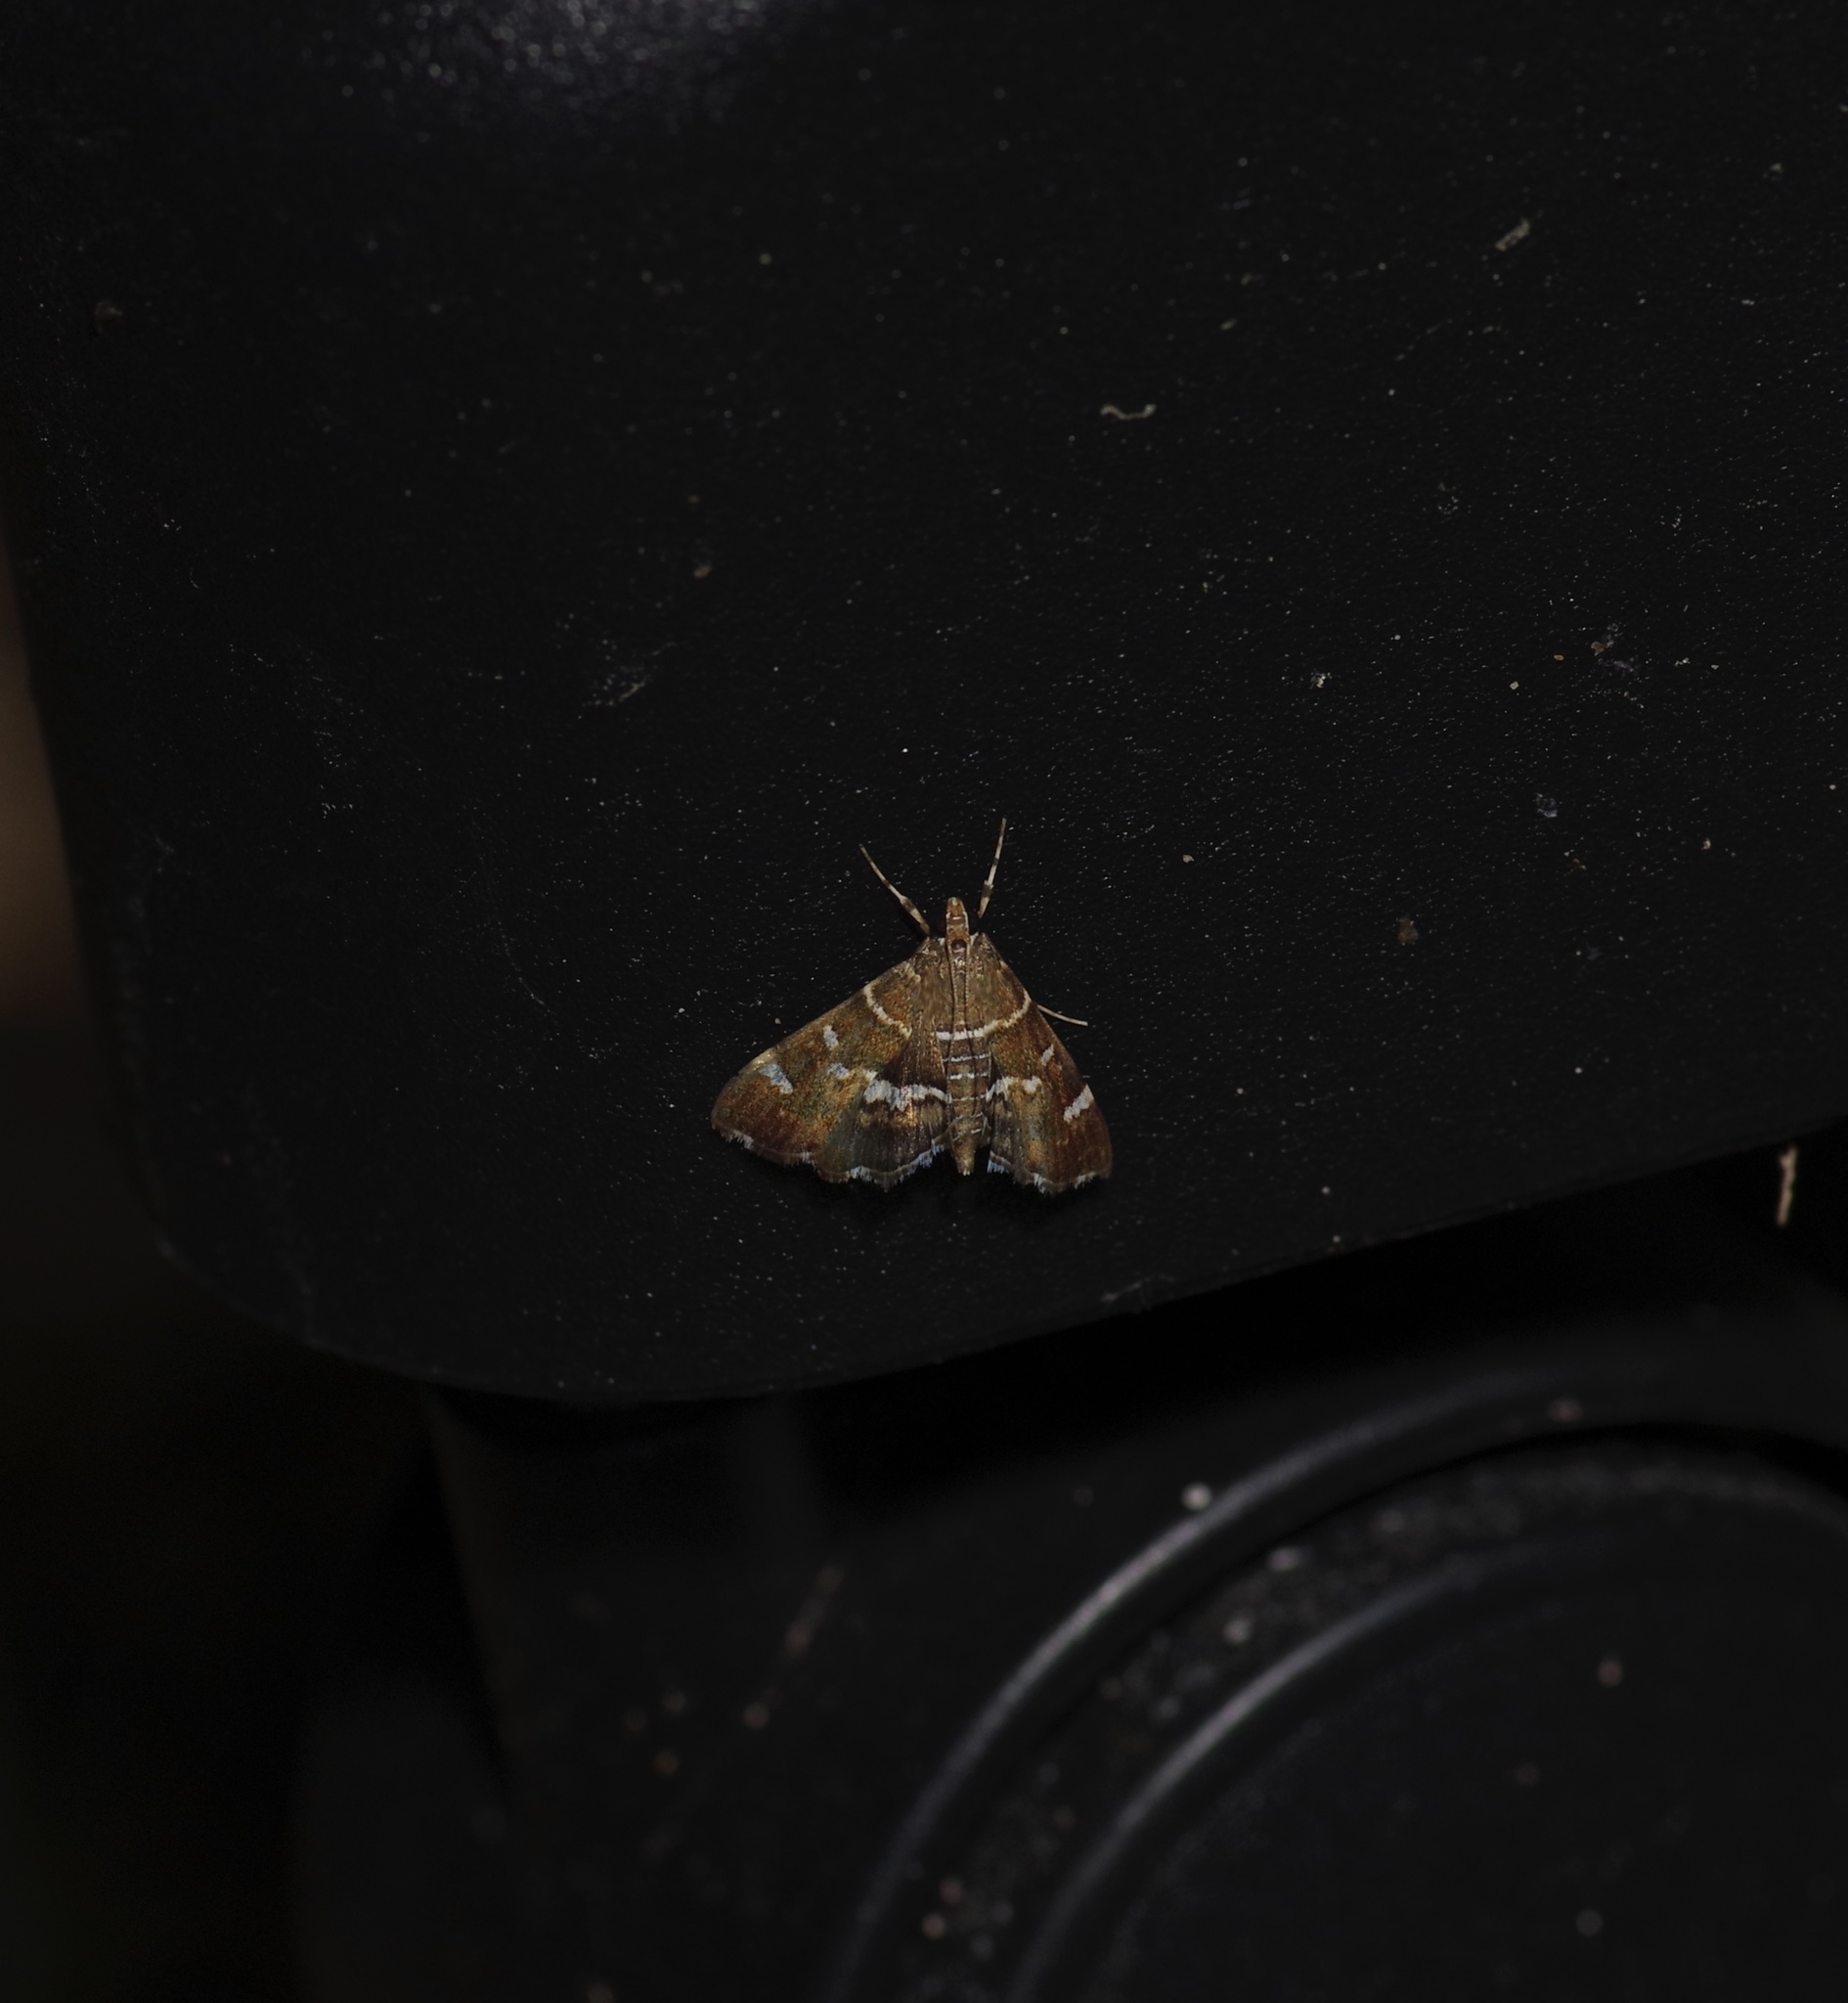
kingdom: Animalia
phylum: Arthropoda
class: Insecta
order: Lepidoptera
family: Crambidae
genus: Hymenia
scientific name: Hymenia perspectalis
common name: Spotted beet webworm
